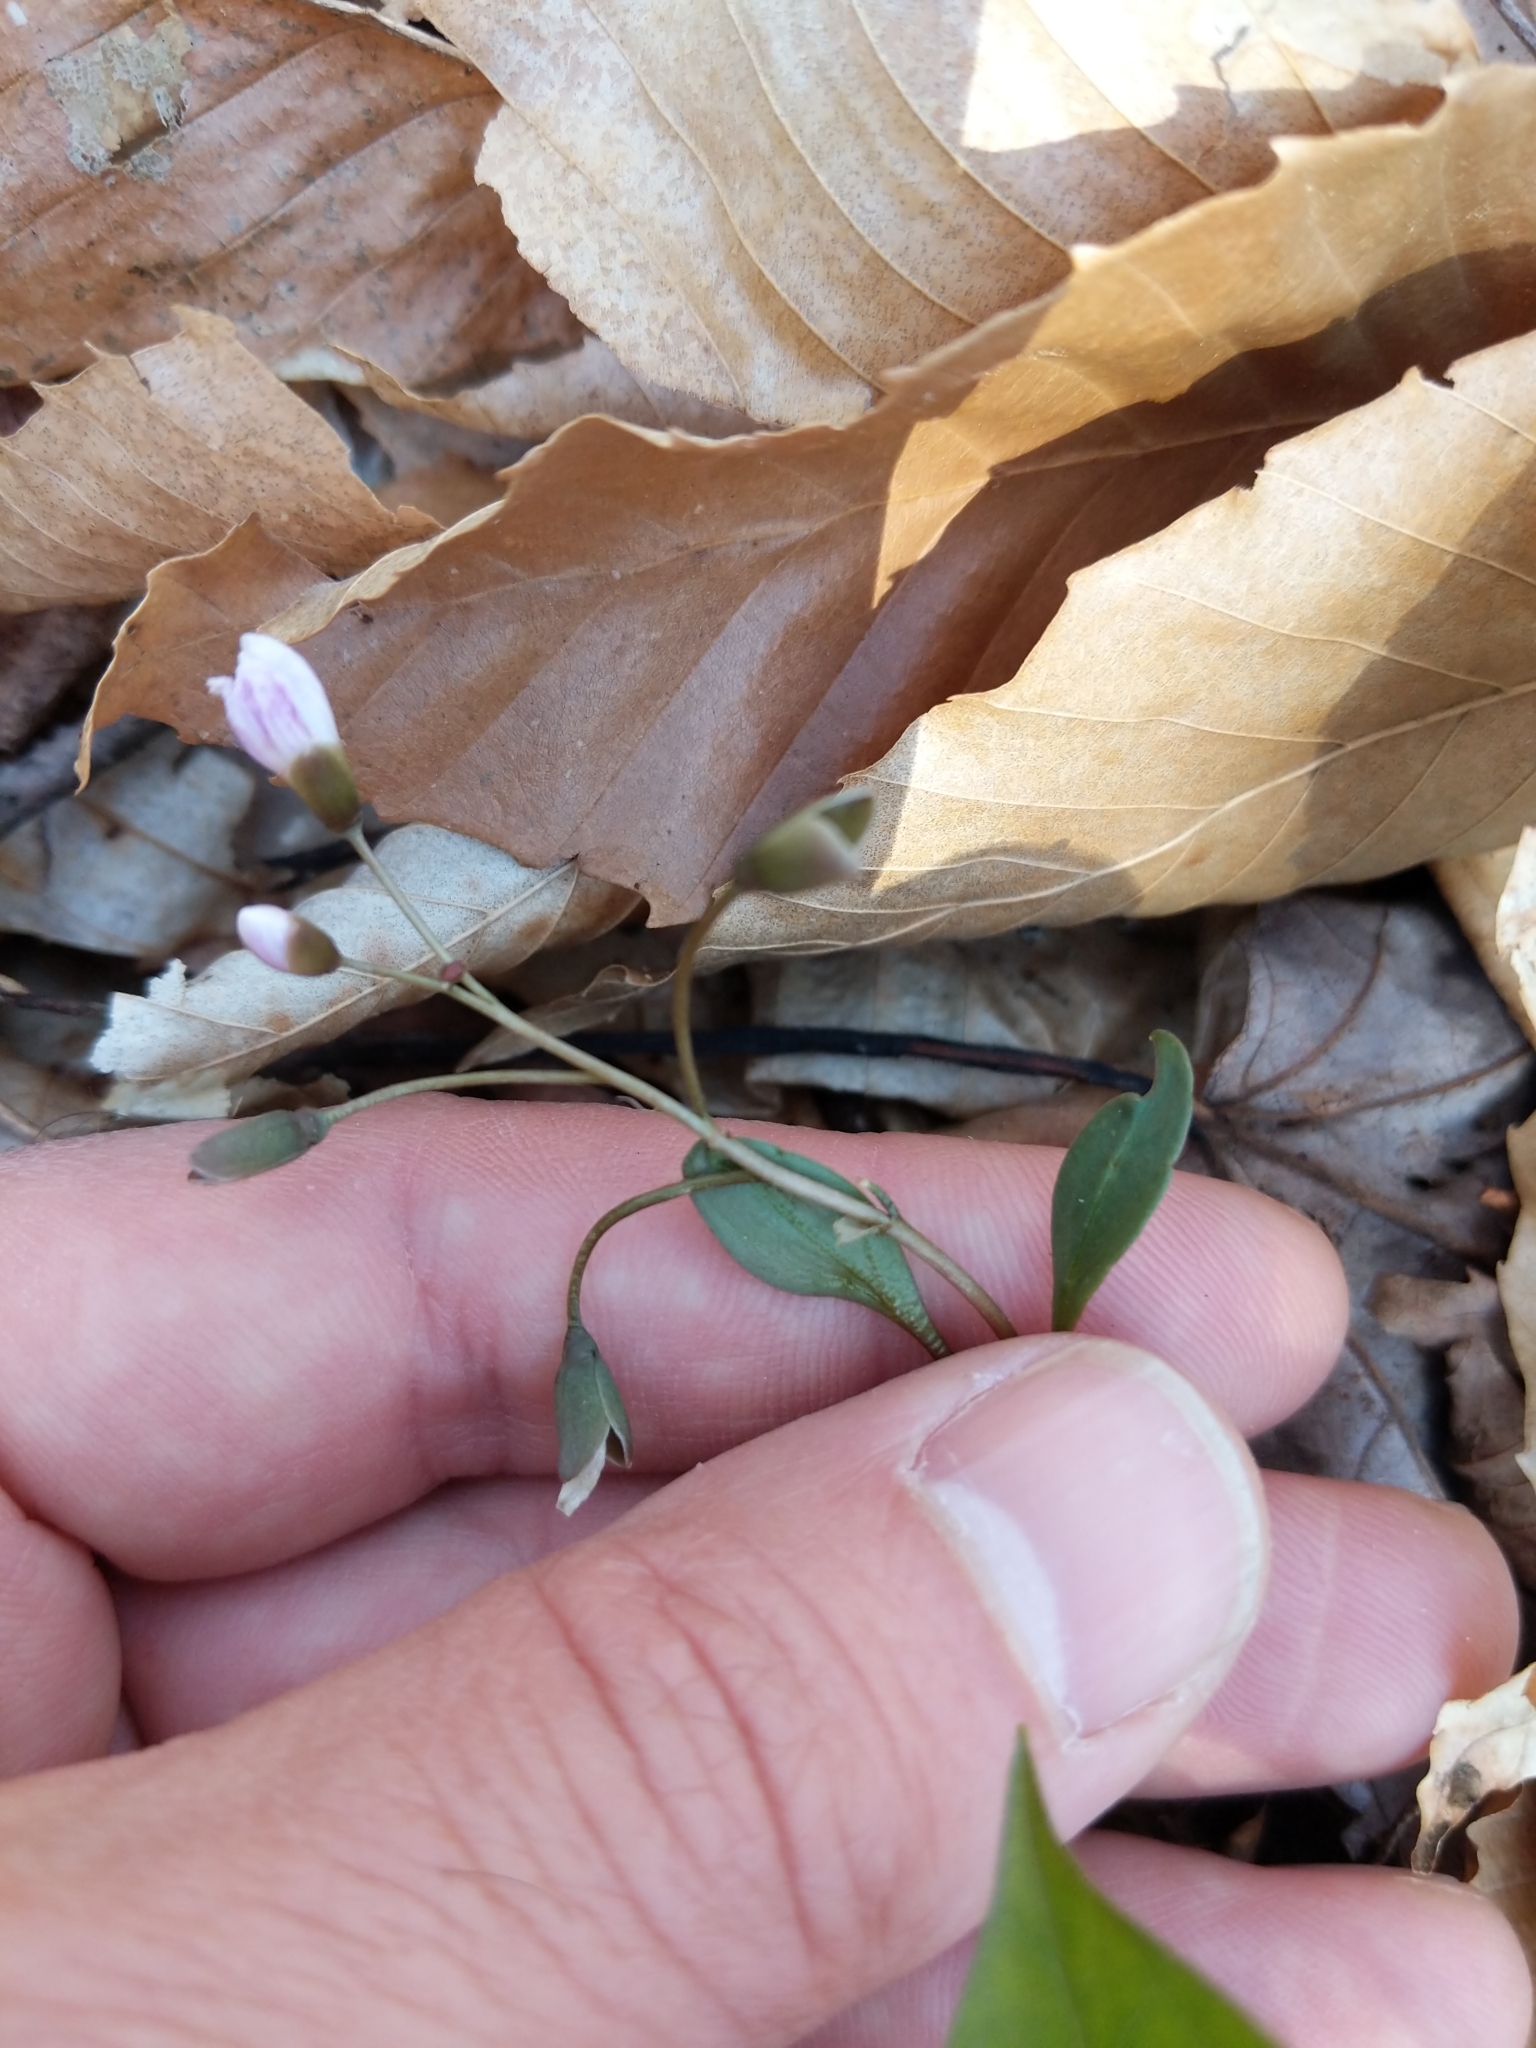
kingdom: Plantae
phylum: Tracheophyta
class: Magnoliopsida
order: Caryophyllales
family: Montiaceae
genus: Claytonia
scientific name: Claytonia caroliniana
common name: Carolina spring beauty
